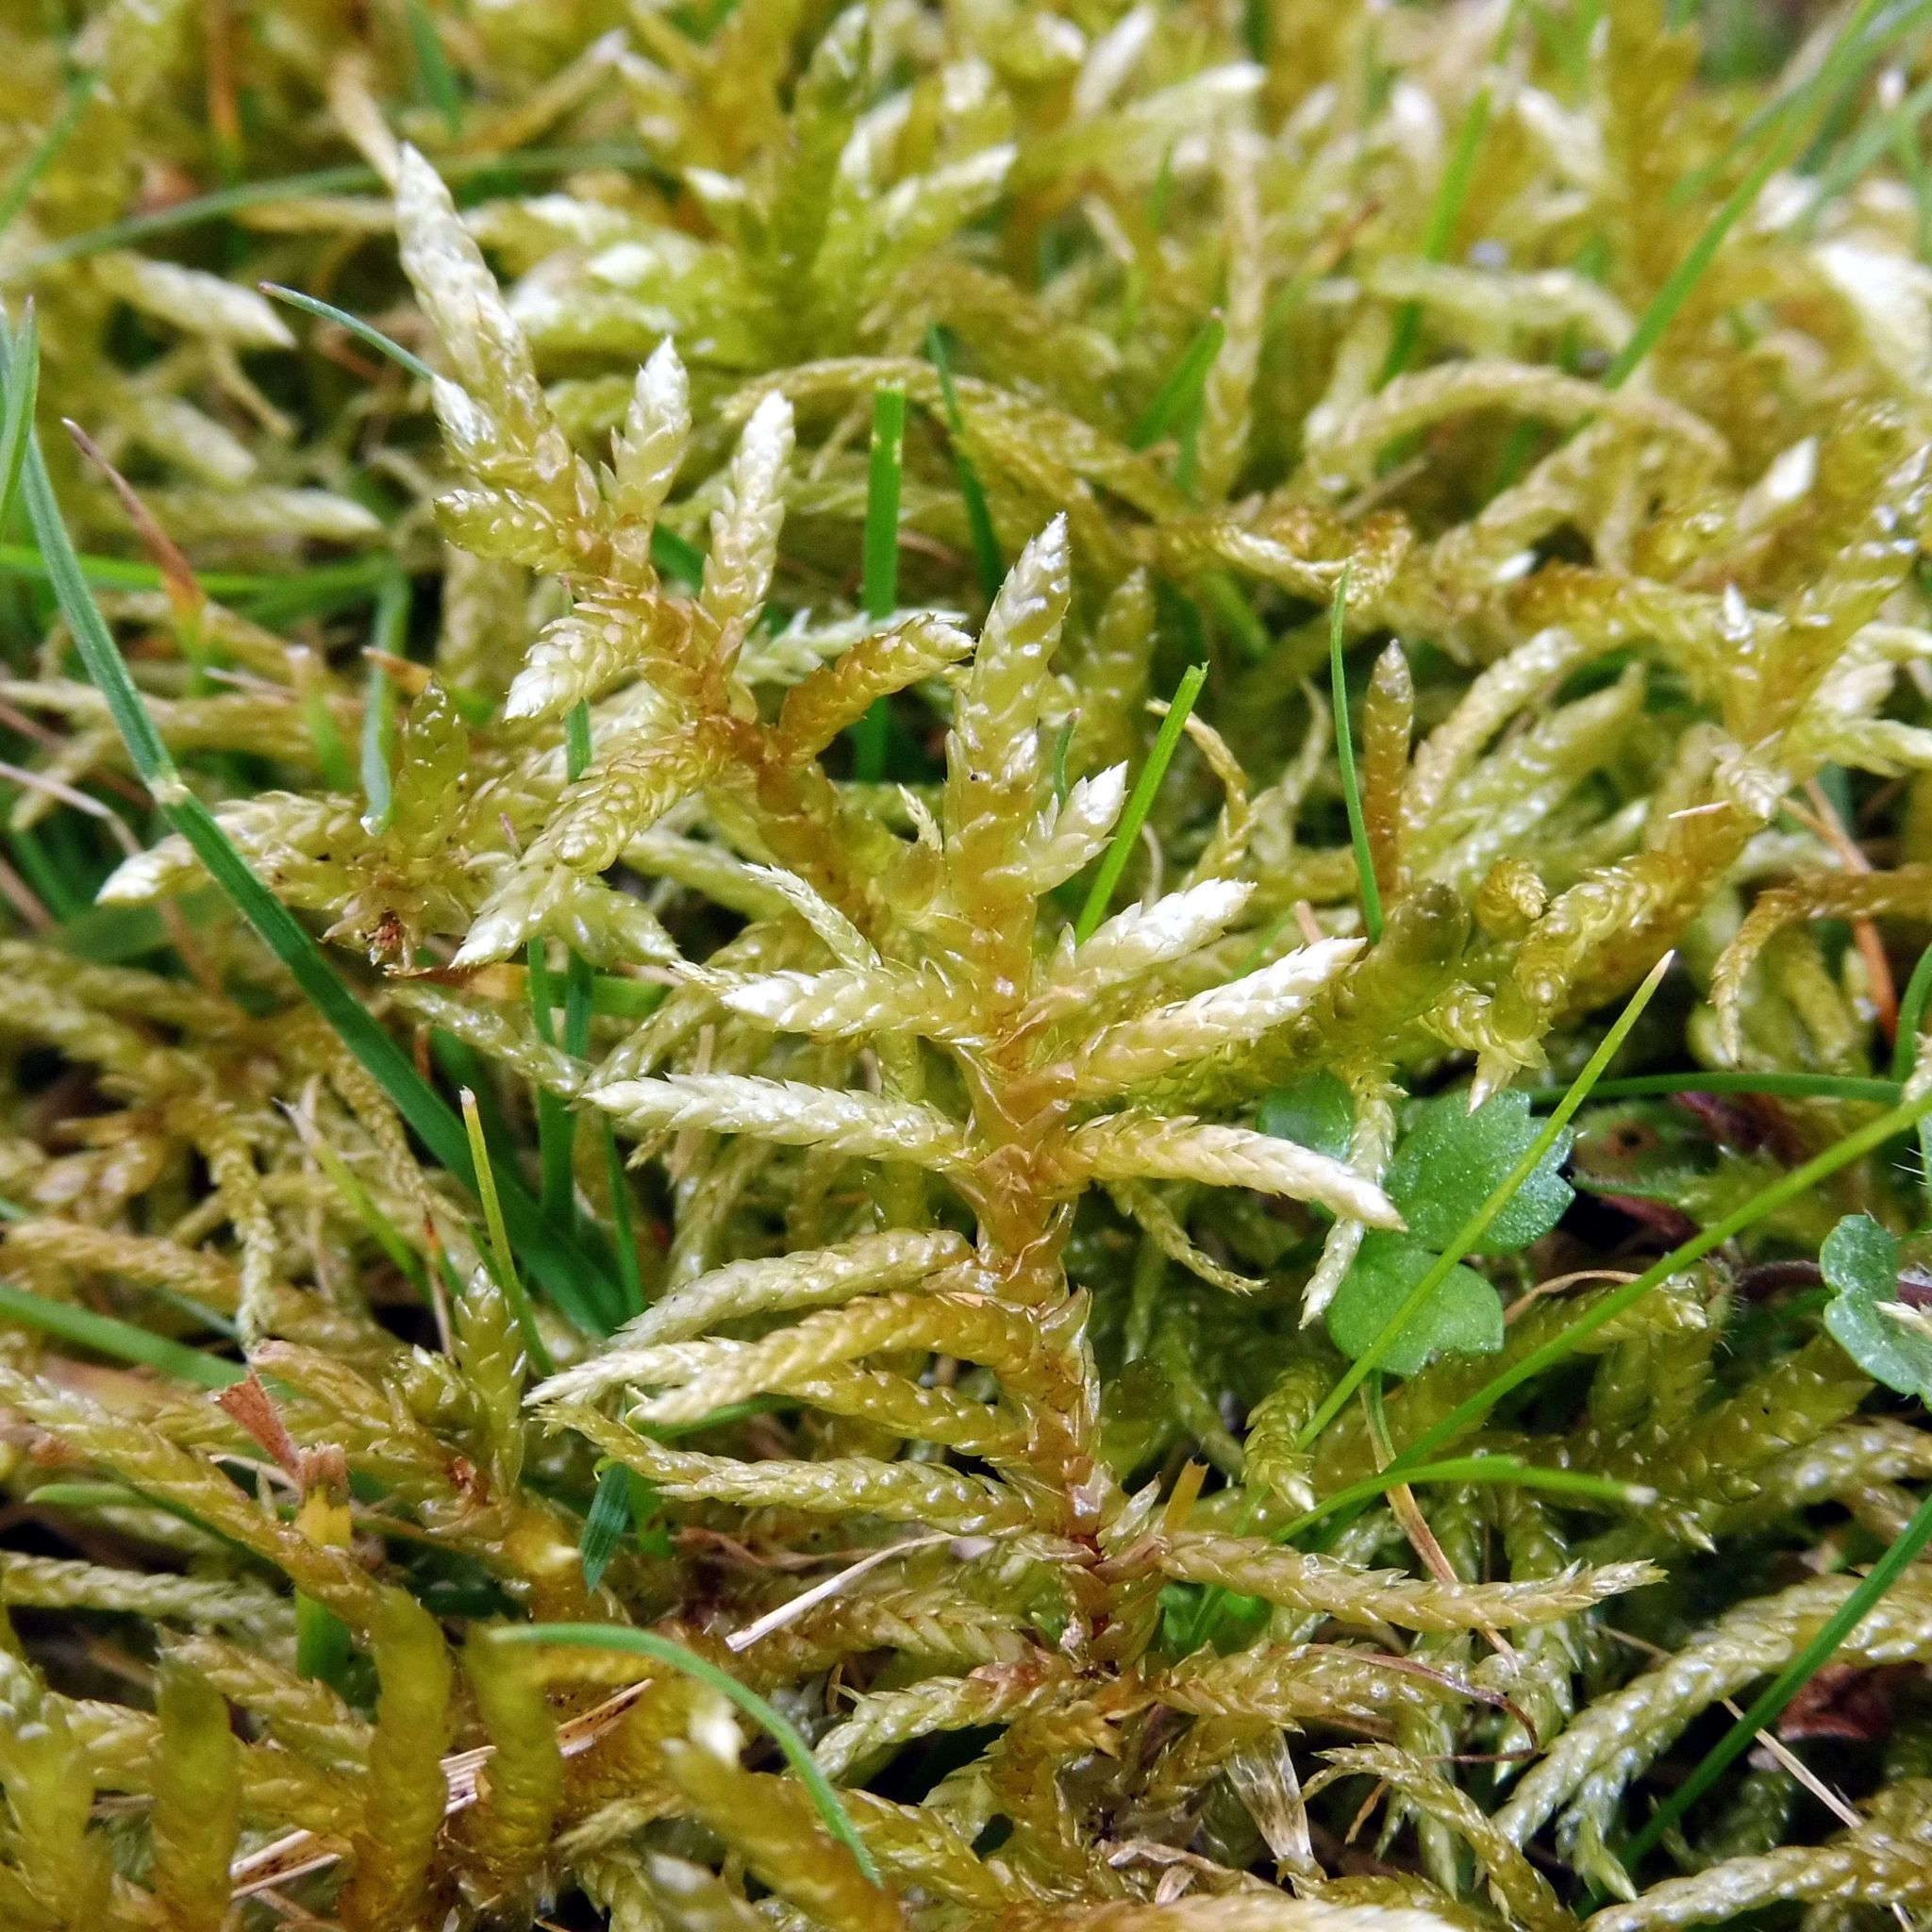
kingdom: Plantae
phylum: Bryophyta
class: Bryopsida
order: Hypnales
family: Brachytheciaceae
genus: Pseudoscleropodium
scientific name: Pseudoscleropodium purum
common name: Neat feather-moss
